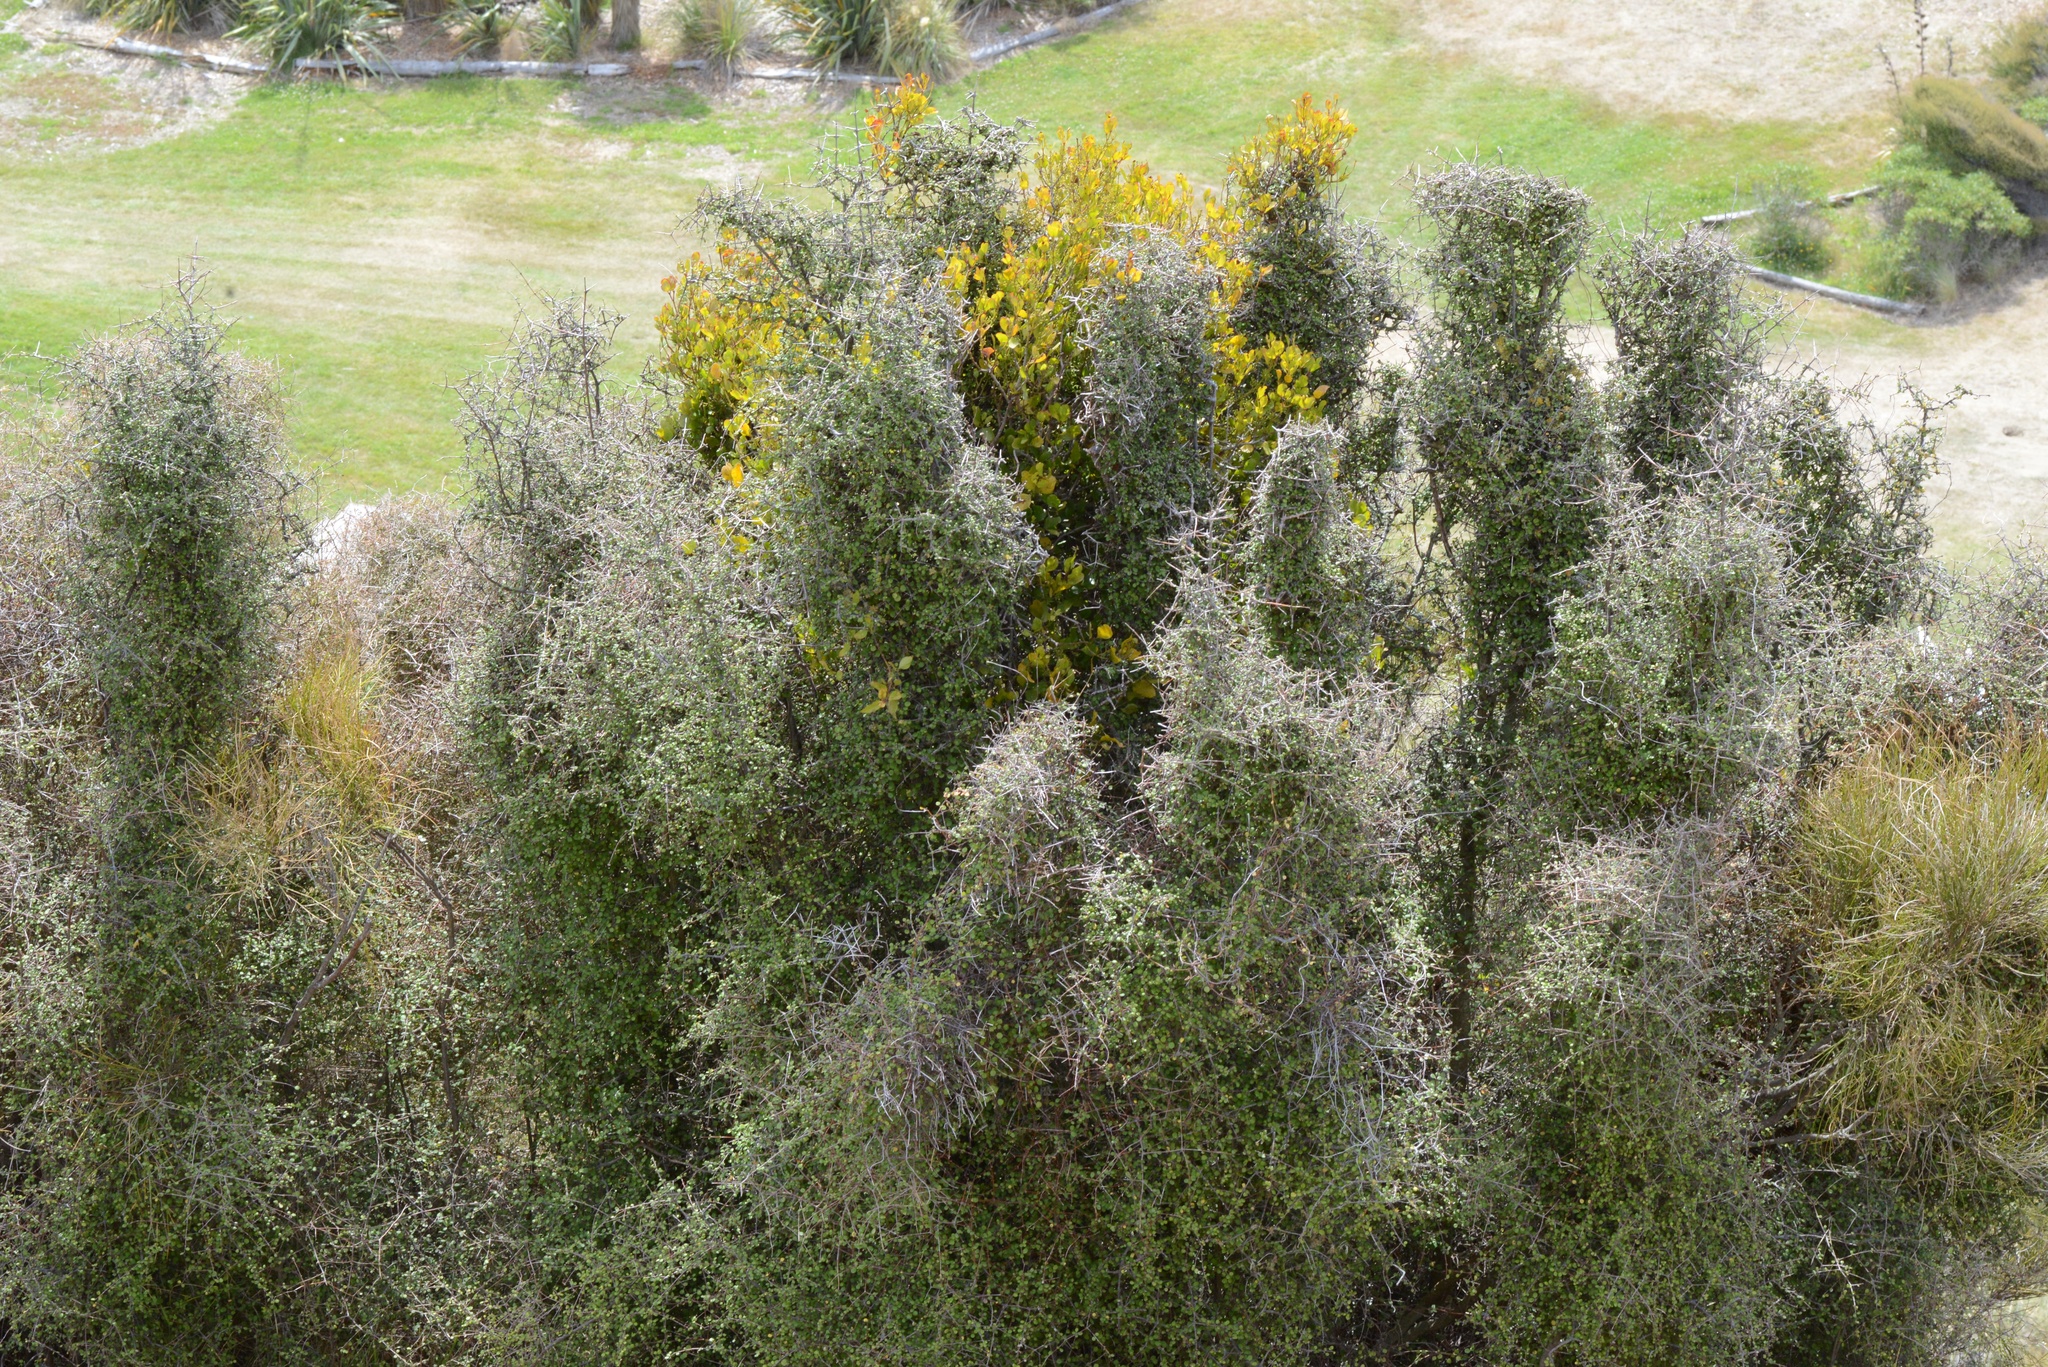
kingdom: Plantae
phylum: Tracheophyta
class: Magnoliopsida
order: Santalales
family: Loranthaceae
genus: Ileostylus
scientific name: Ileostylus micranthus
